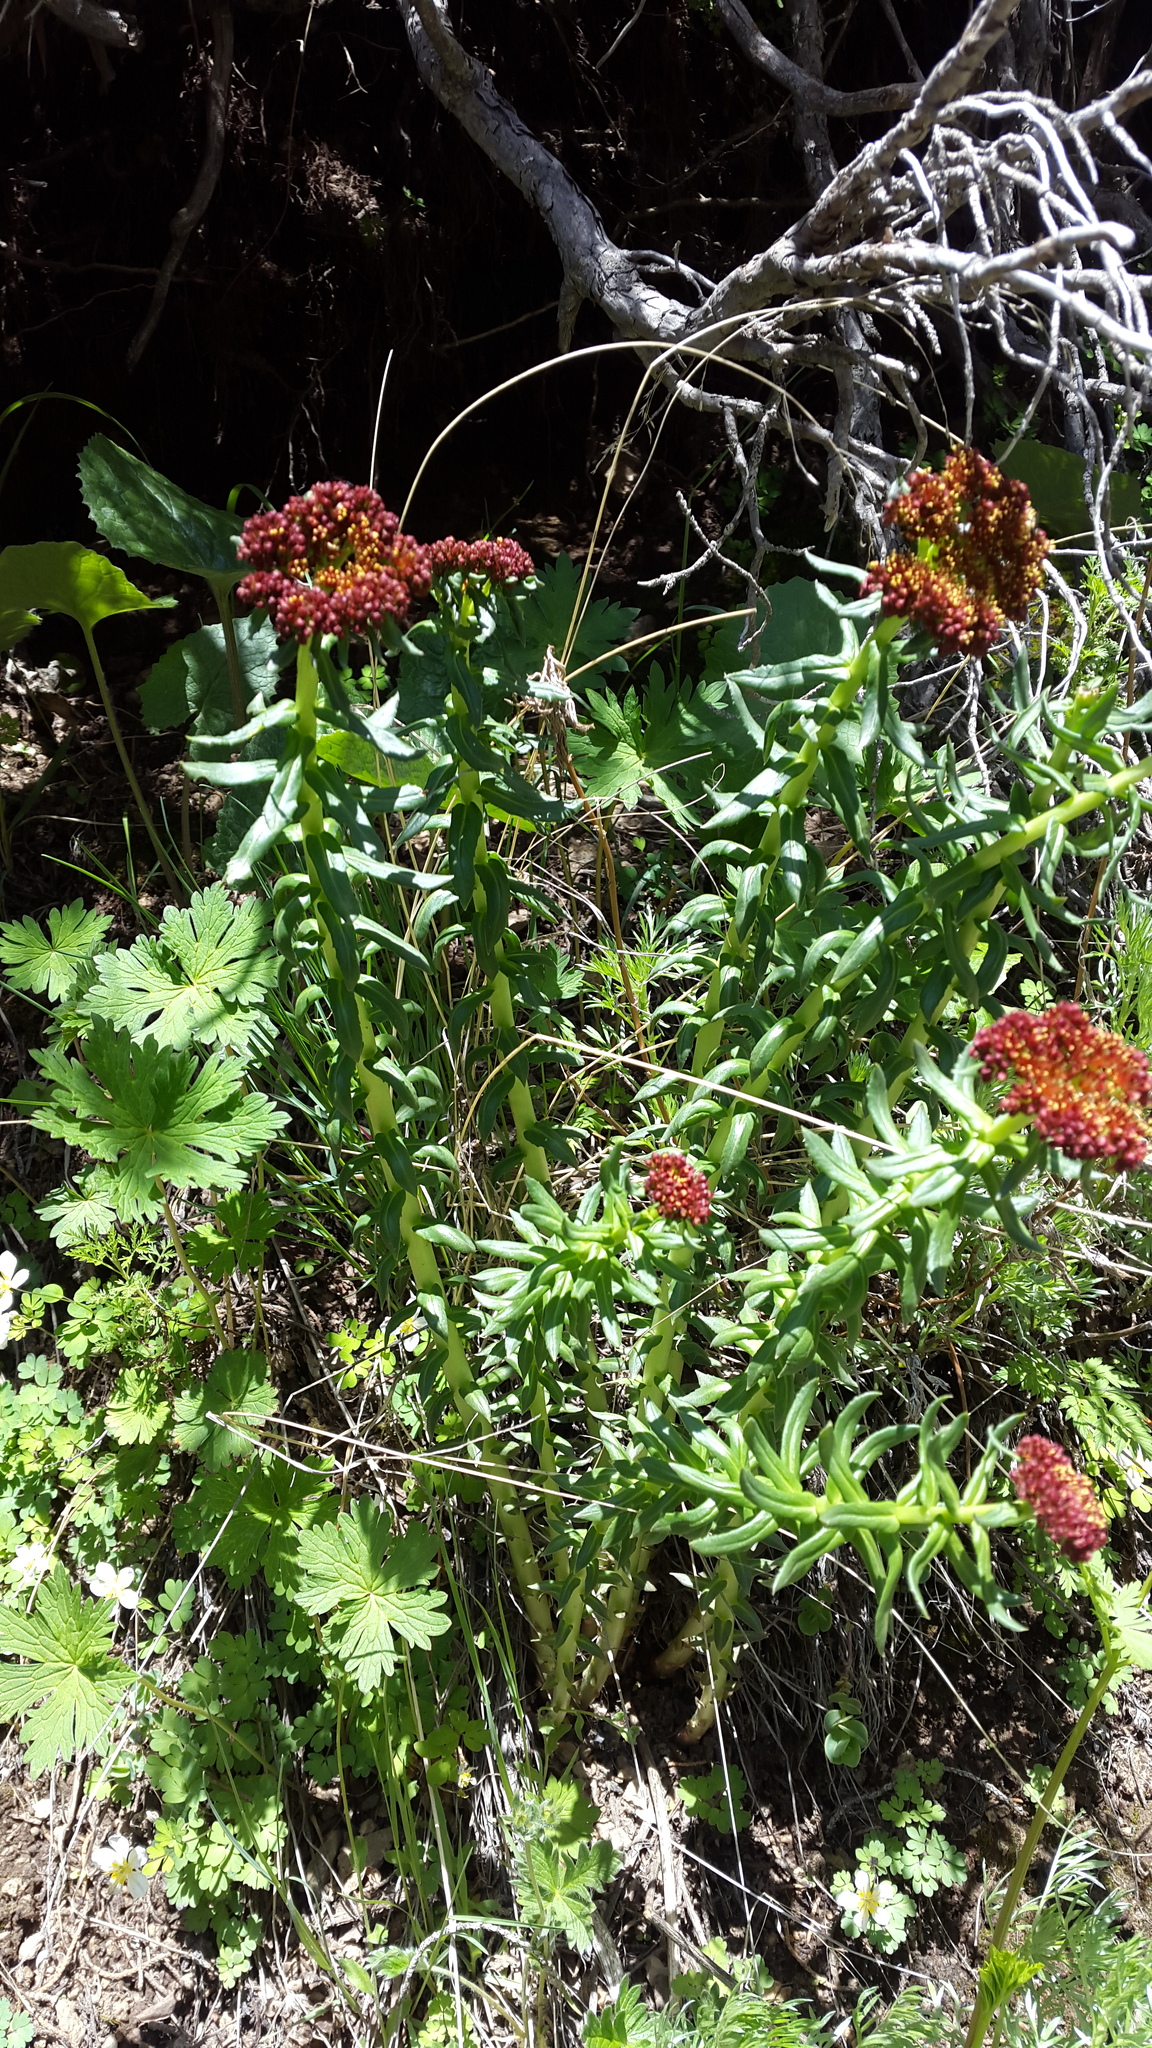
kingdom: Plantae
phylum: Tracheophyta
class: Magnoliopsida
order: Saxifragales
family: Crassulaceae
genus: Rhodiola
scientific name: Rhodiola kirilowii
